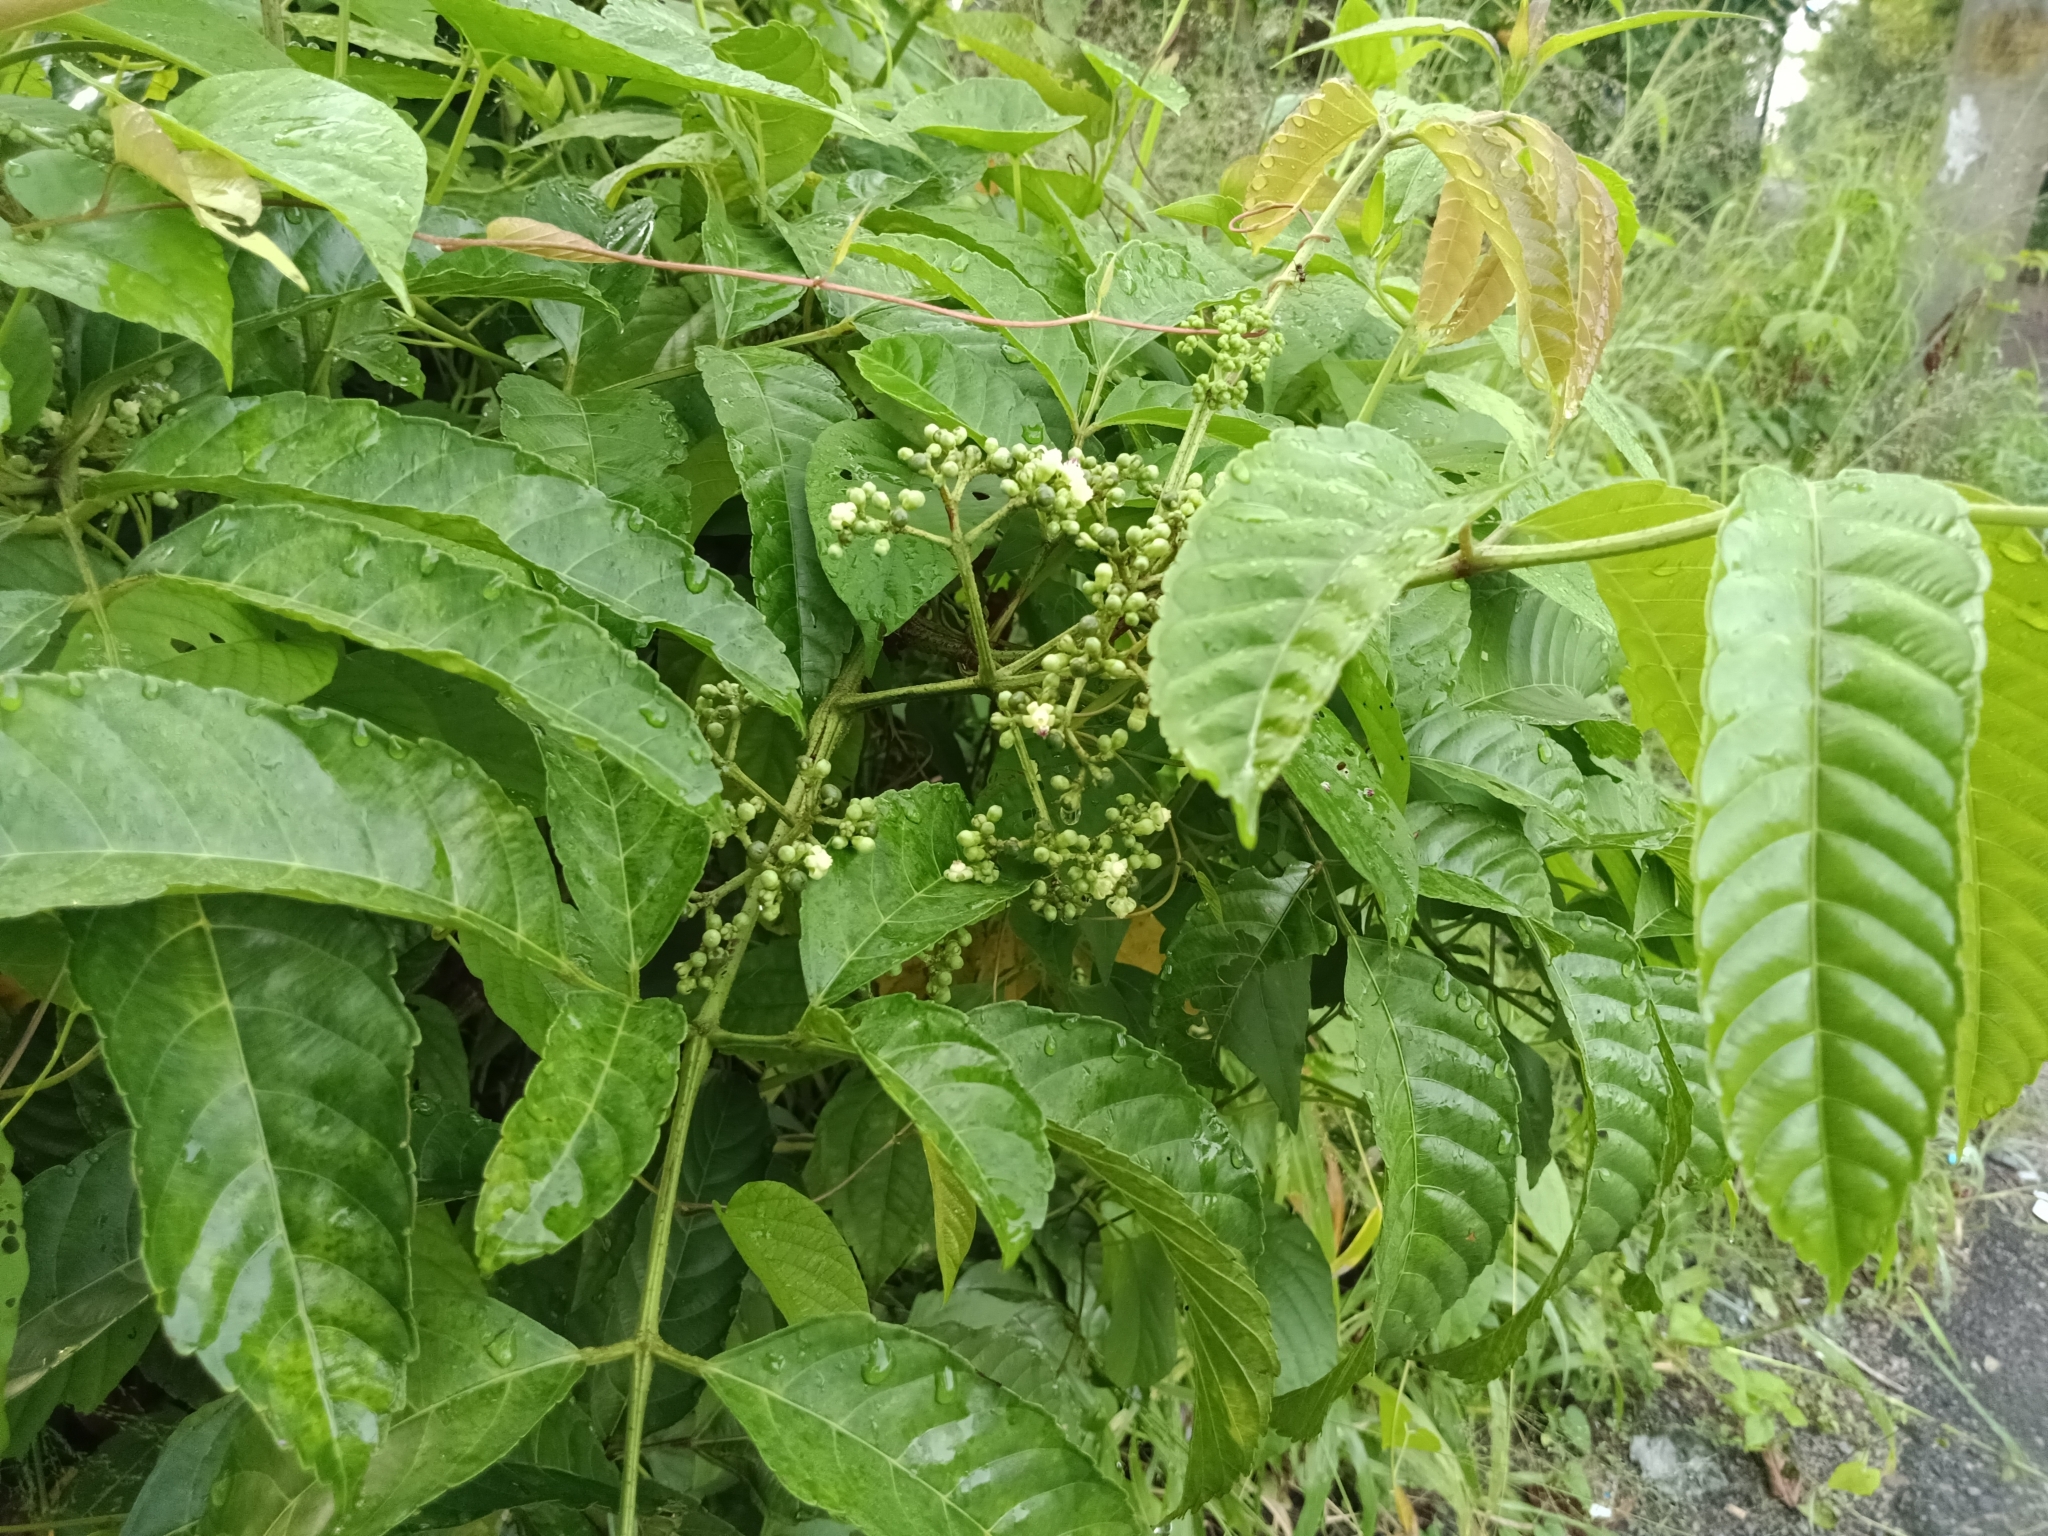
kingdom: Plantae
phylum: Tracheophyta
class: Magnoliopsida
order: Vitales
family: Vitaceae
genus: Leea
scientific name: Leea indica
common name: Bandicoot-berry
